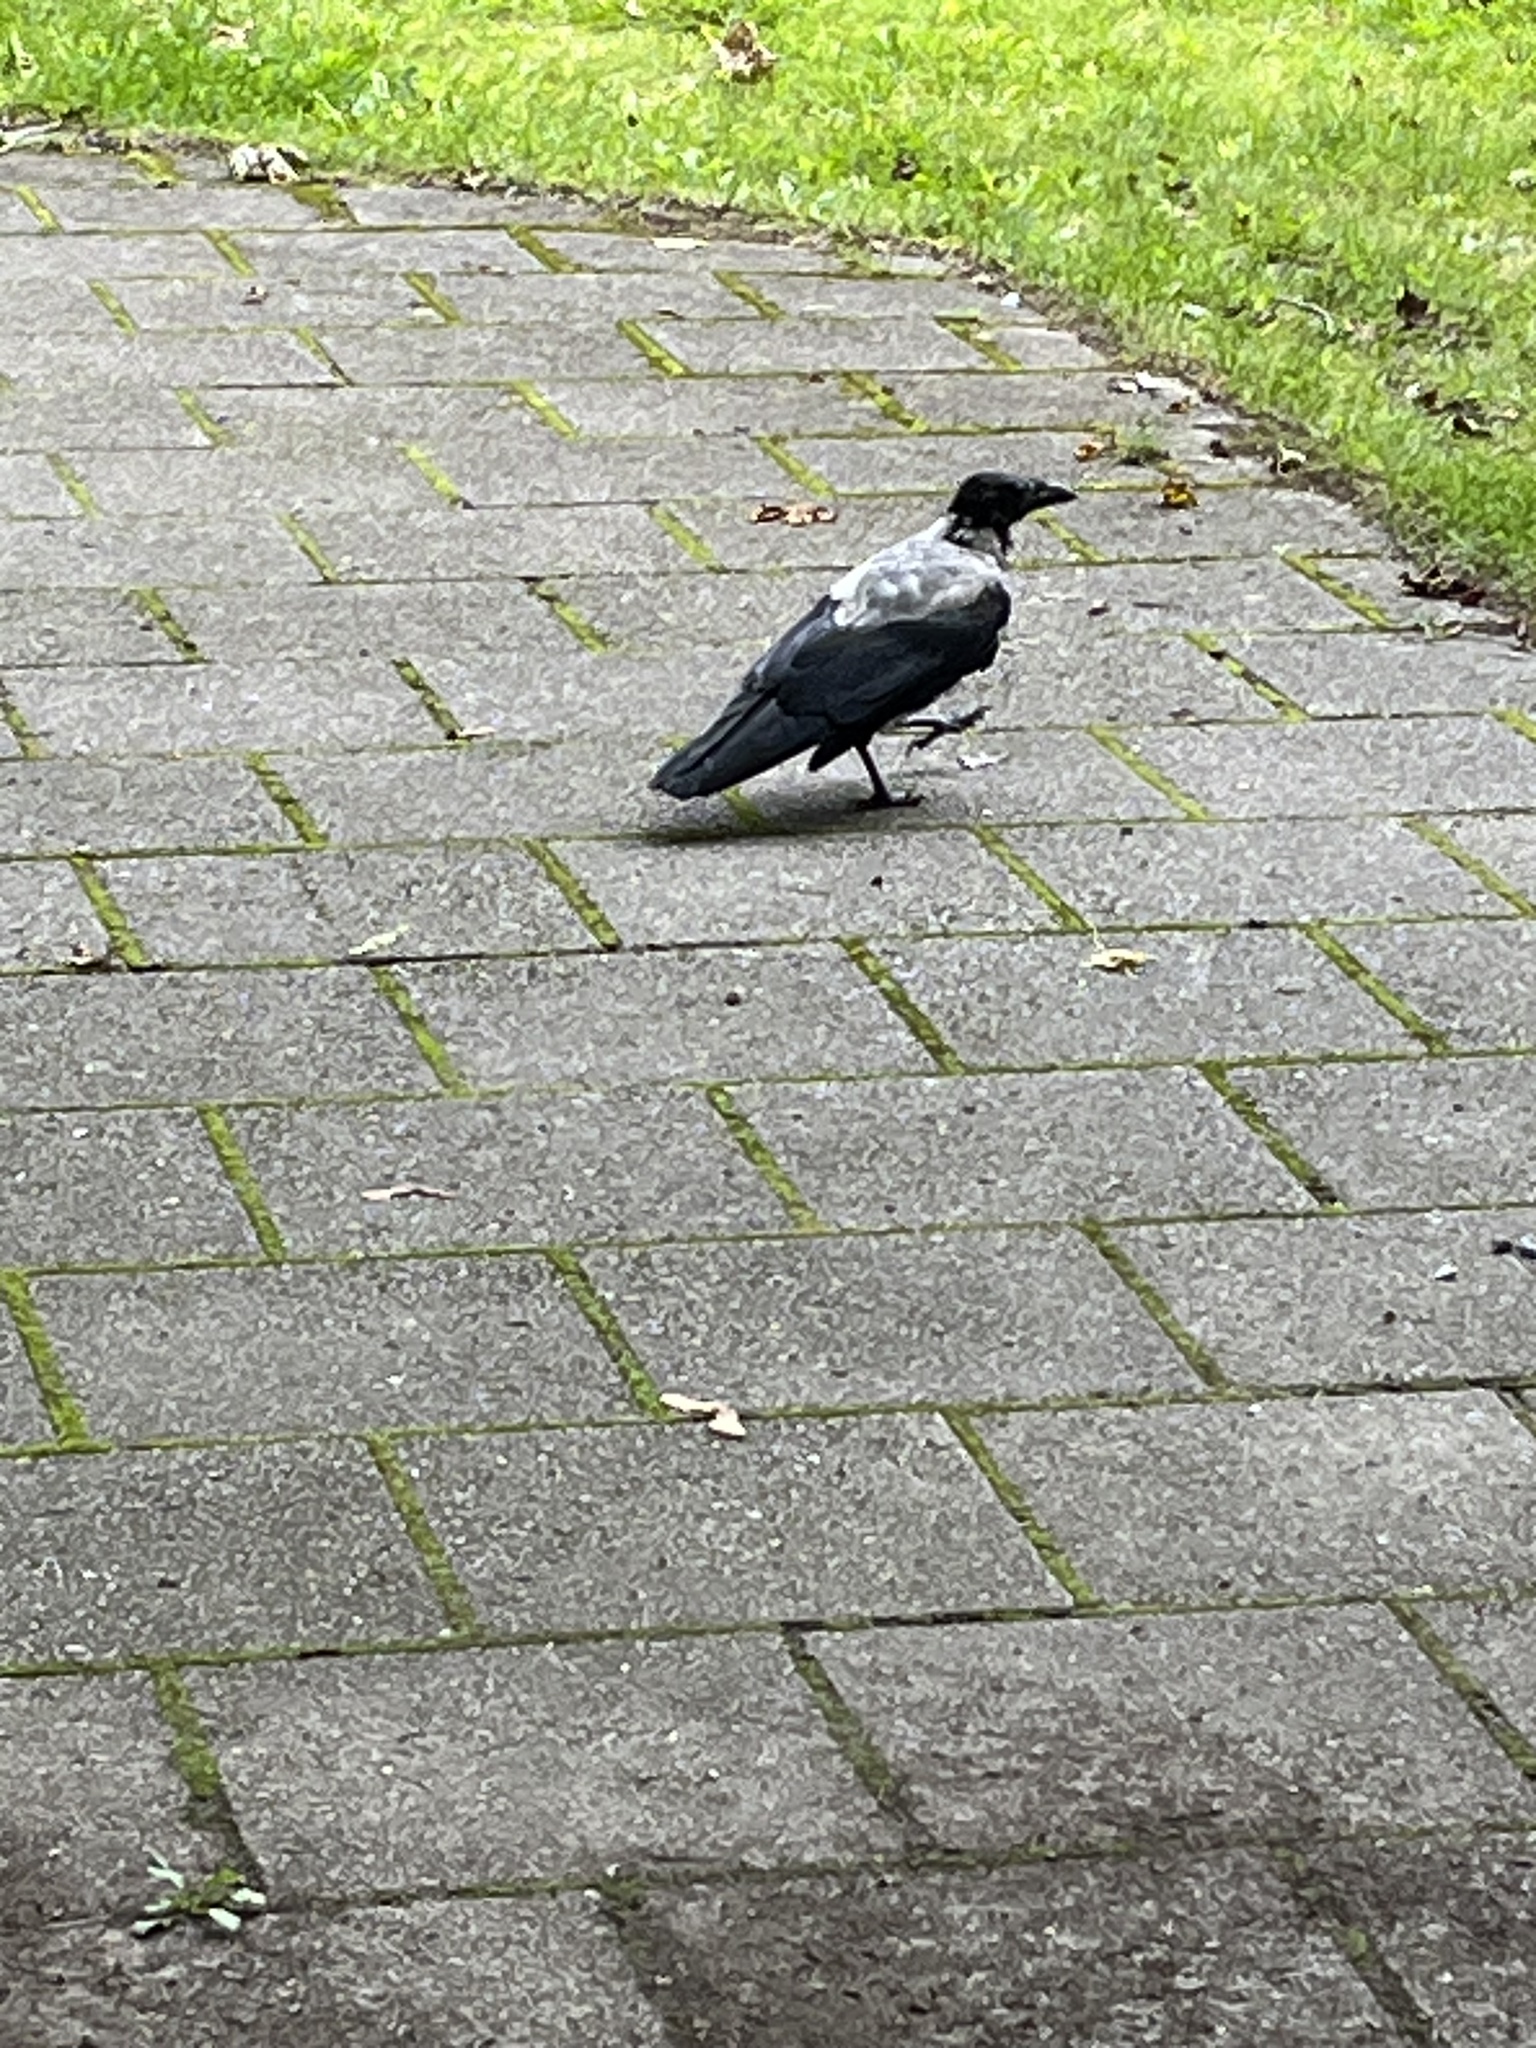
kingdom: Animalia
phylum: Chordata
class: Aves
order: Passeriformes
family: Corvidae
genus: Corvus
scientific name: Corvus cornix
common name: Hooded crow
